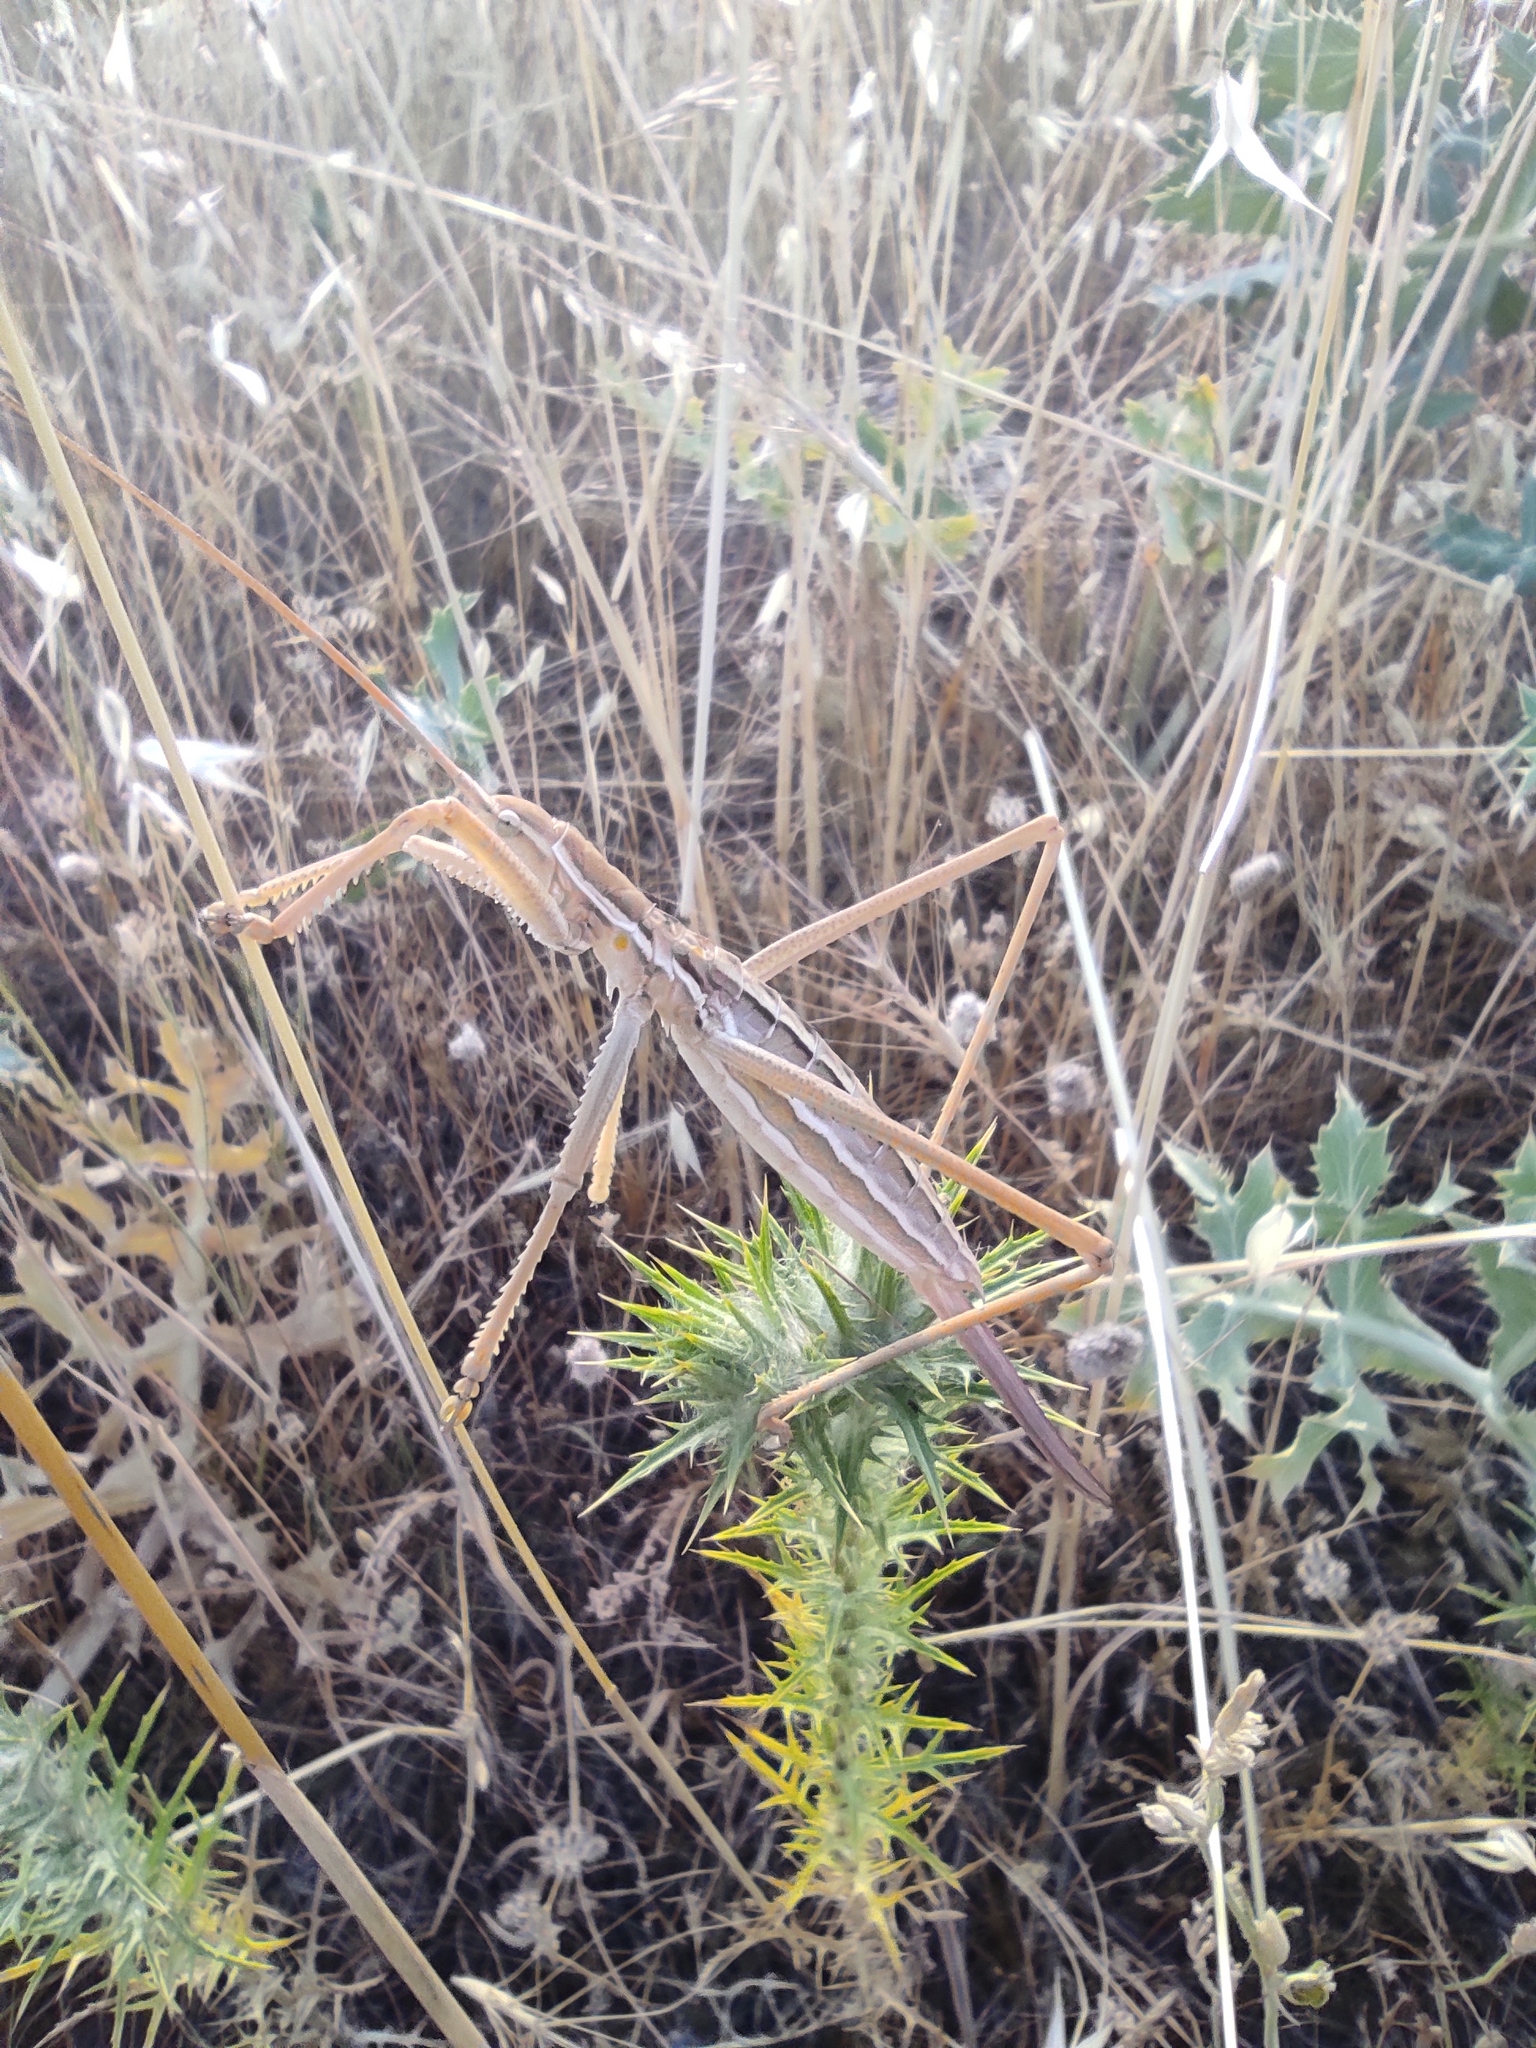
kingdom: Animalia
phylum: Arthropoda
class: Insecta
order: Orthoptera
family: Tettigoniidae
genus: Saga
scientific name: Saga pedo
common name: Common predatory bush-cricket
